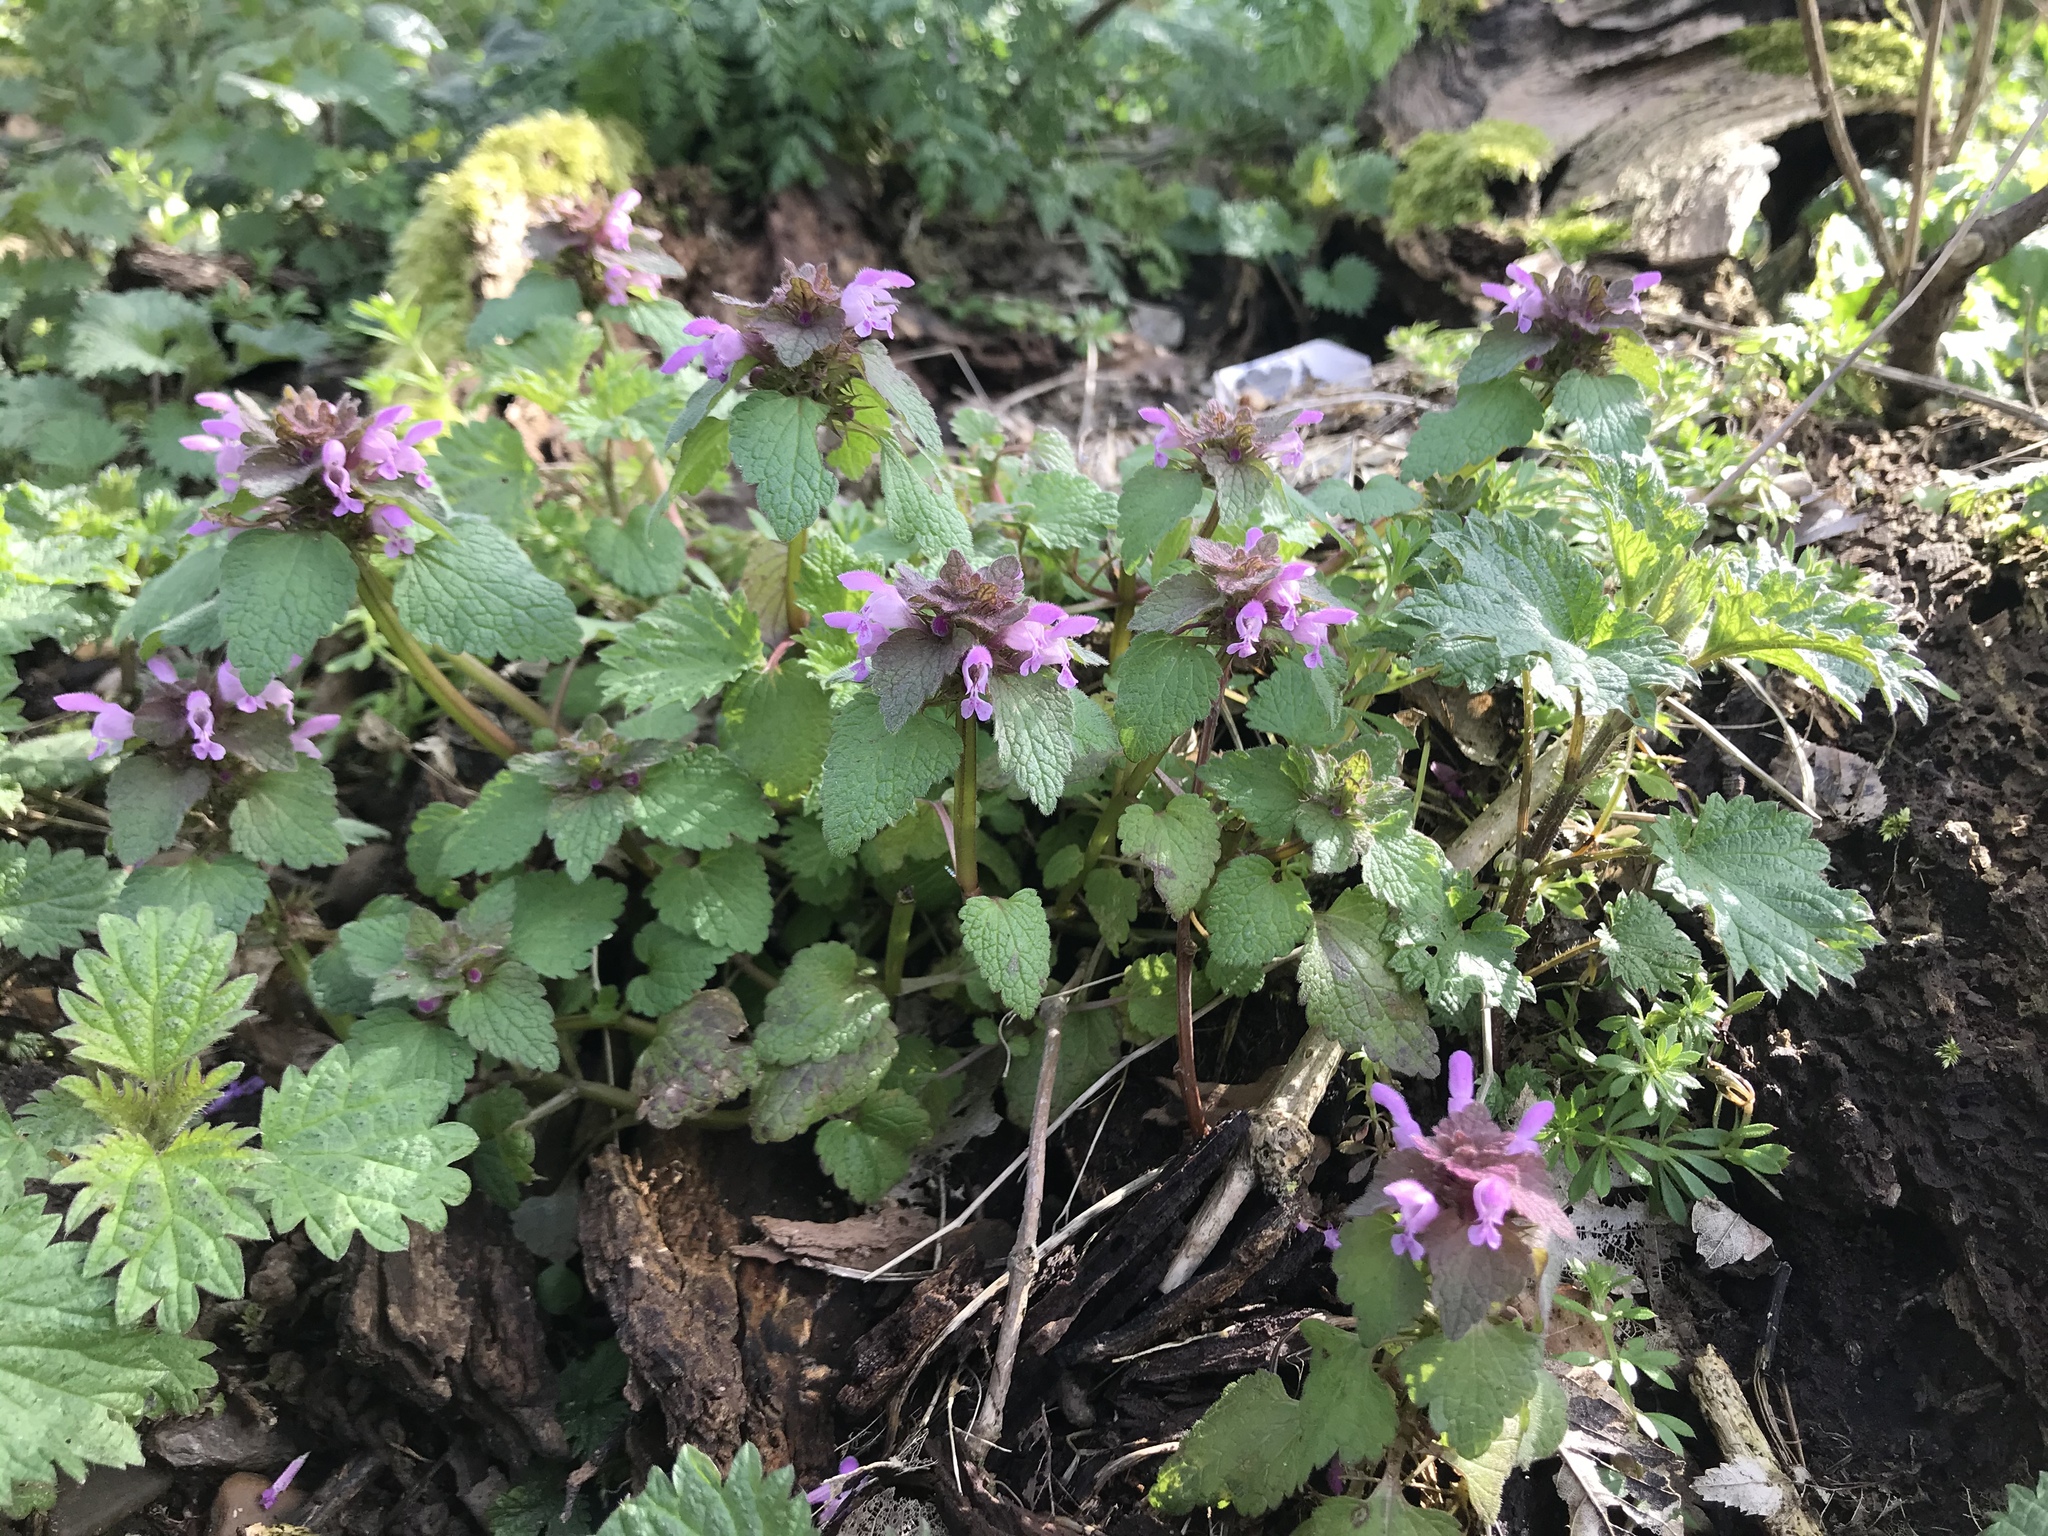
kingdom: Plantae
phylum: Tracheophyta
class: Magnoliopsida
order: Lamiales
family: Lamiaceae
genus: Lamium
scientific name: Lamium purpureum
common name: Red dead-nettle
